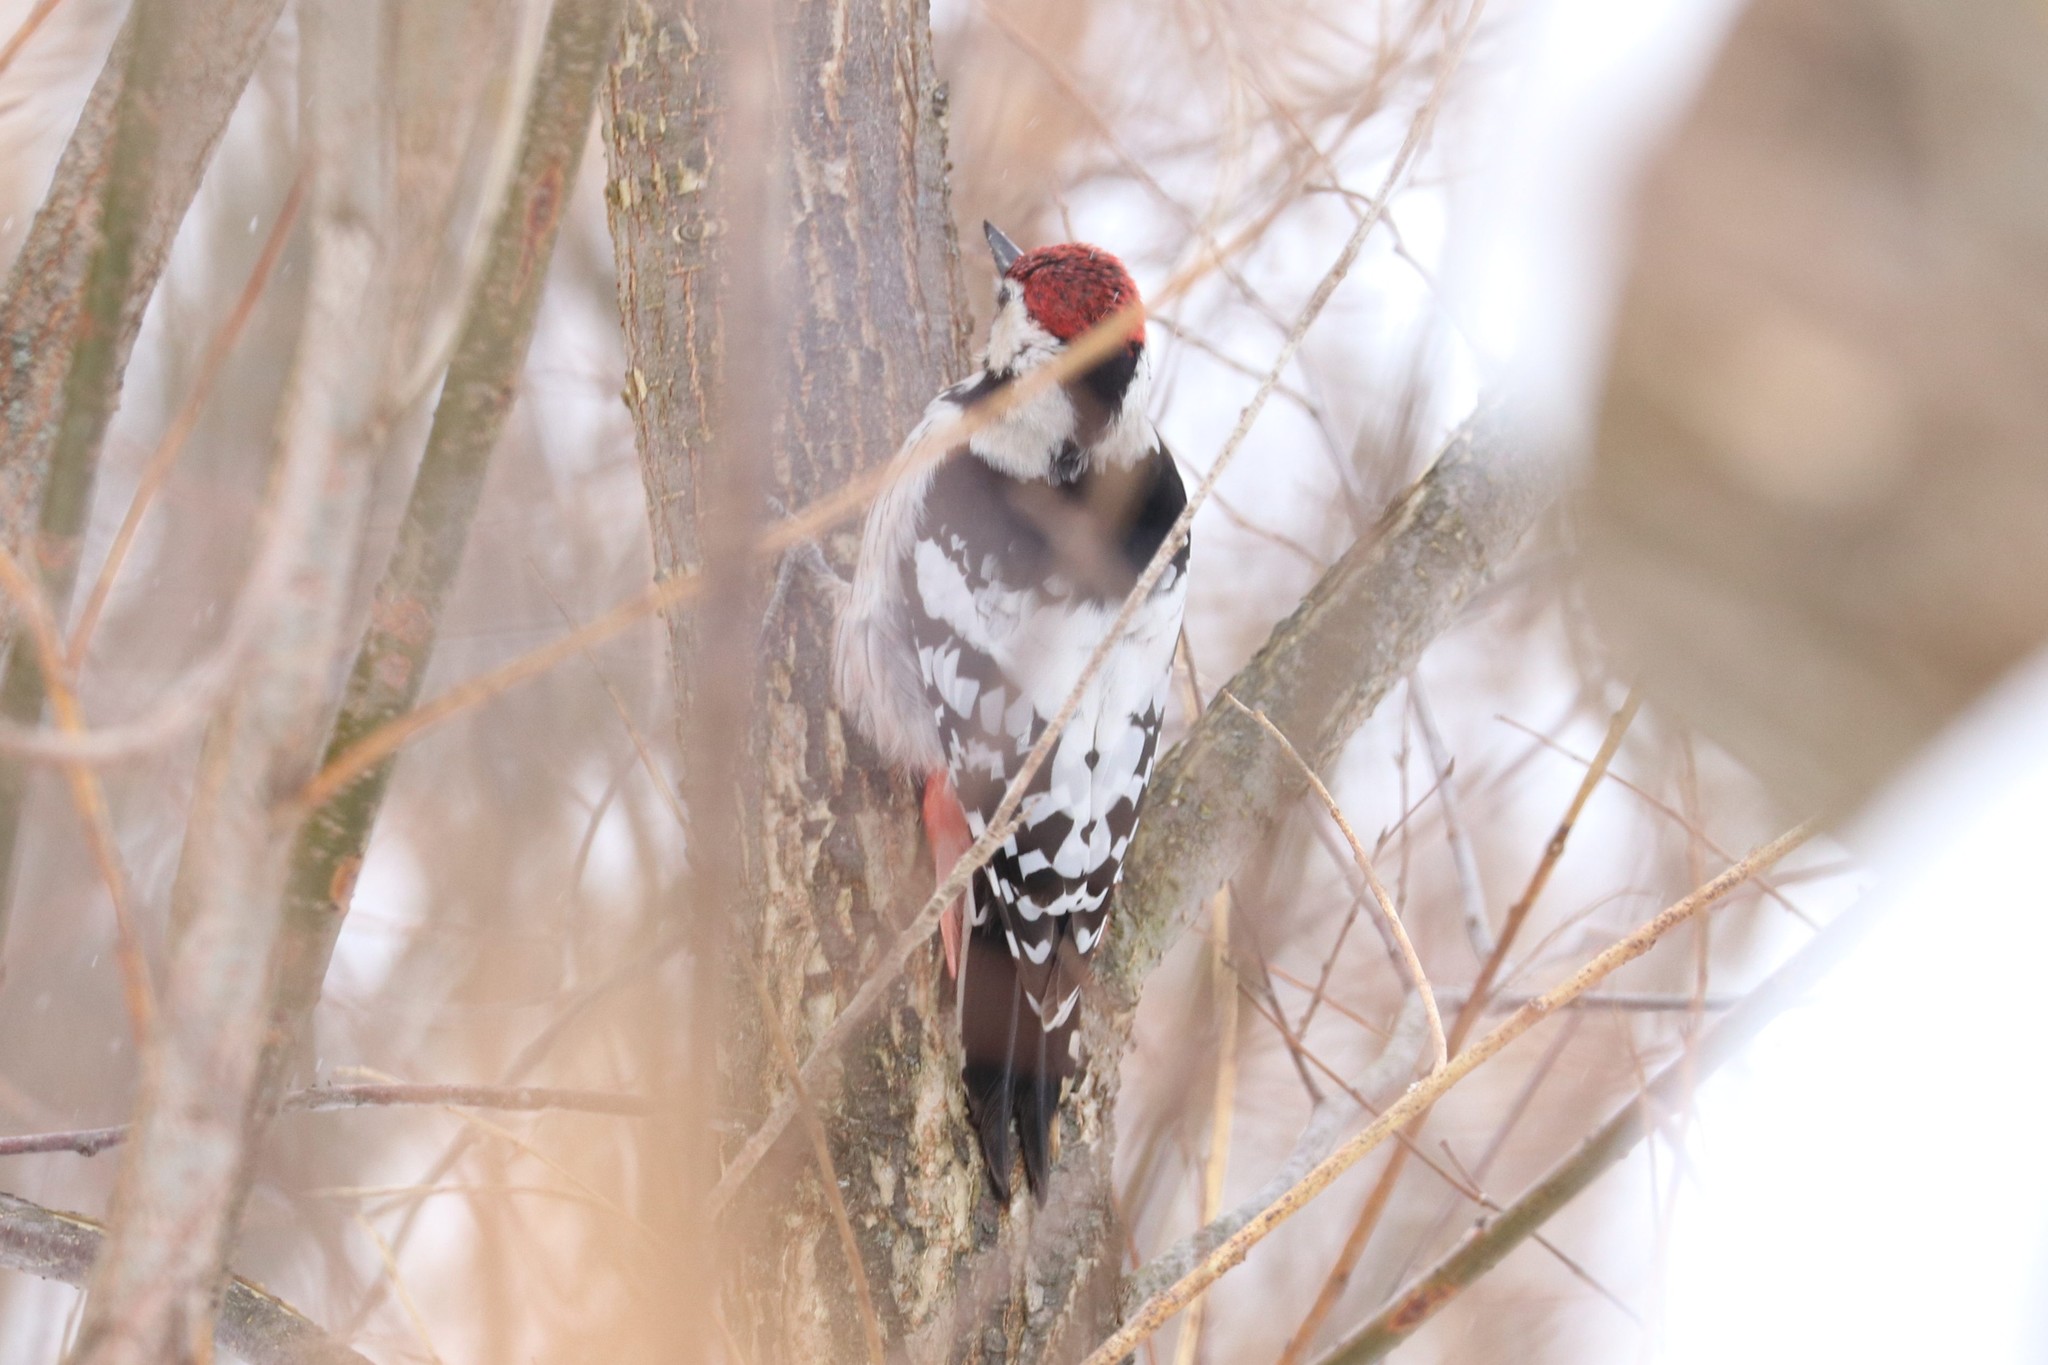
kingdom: Animalia
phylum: Chordata
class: Aves
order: Piciformes
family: Picidae
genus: Dendrocopos
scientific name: Dendrocopos leucotos
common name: White-backed woodpecker
